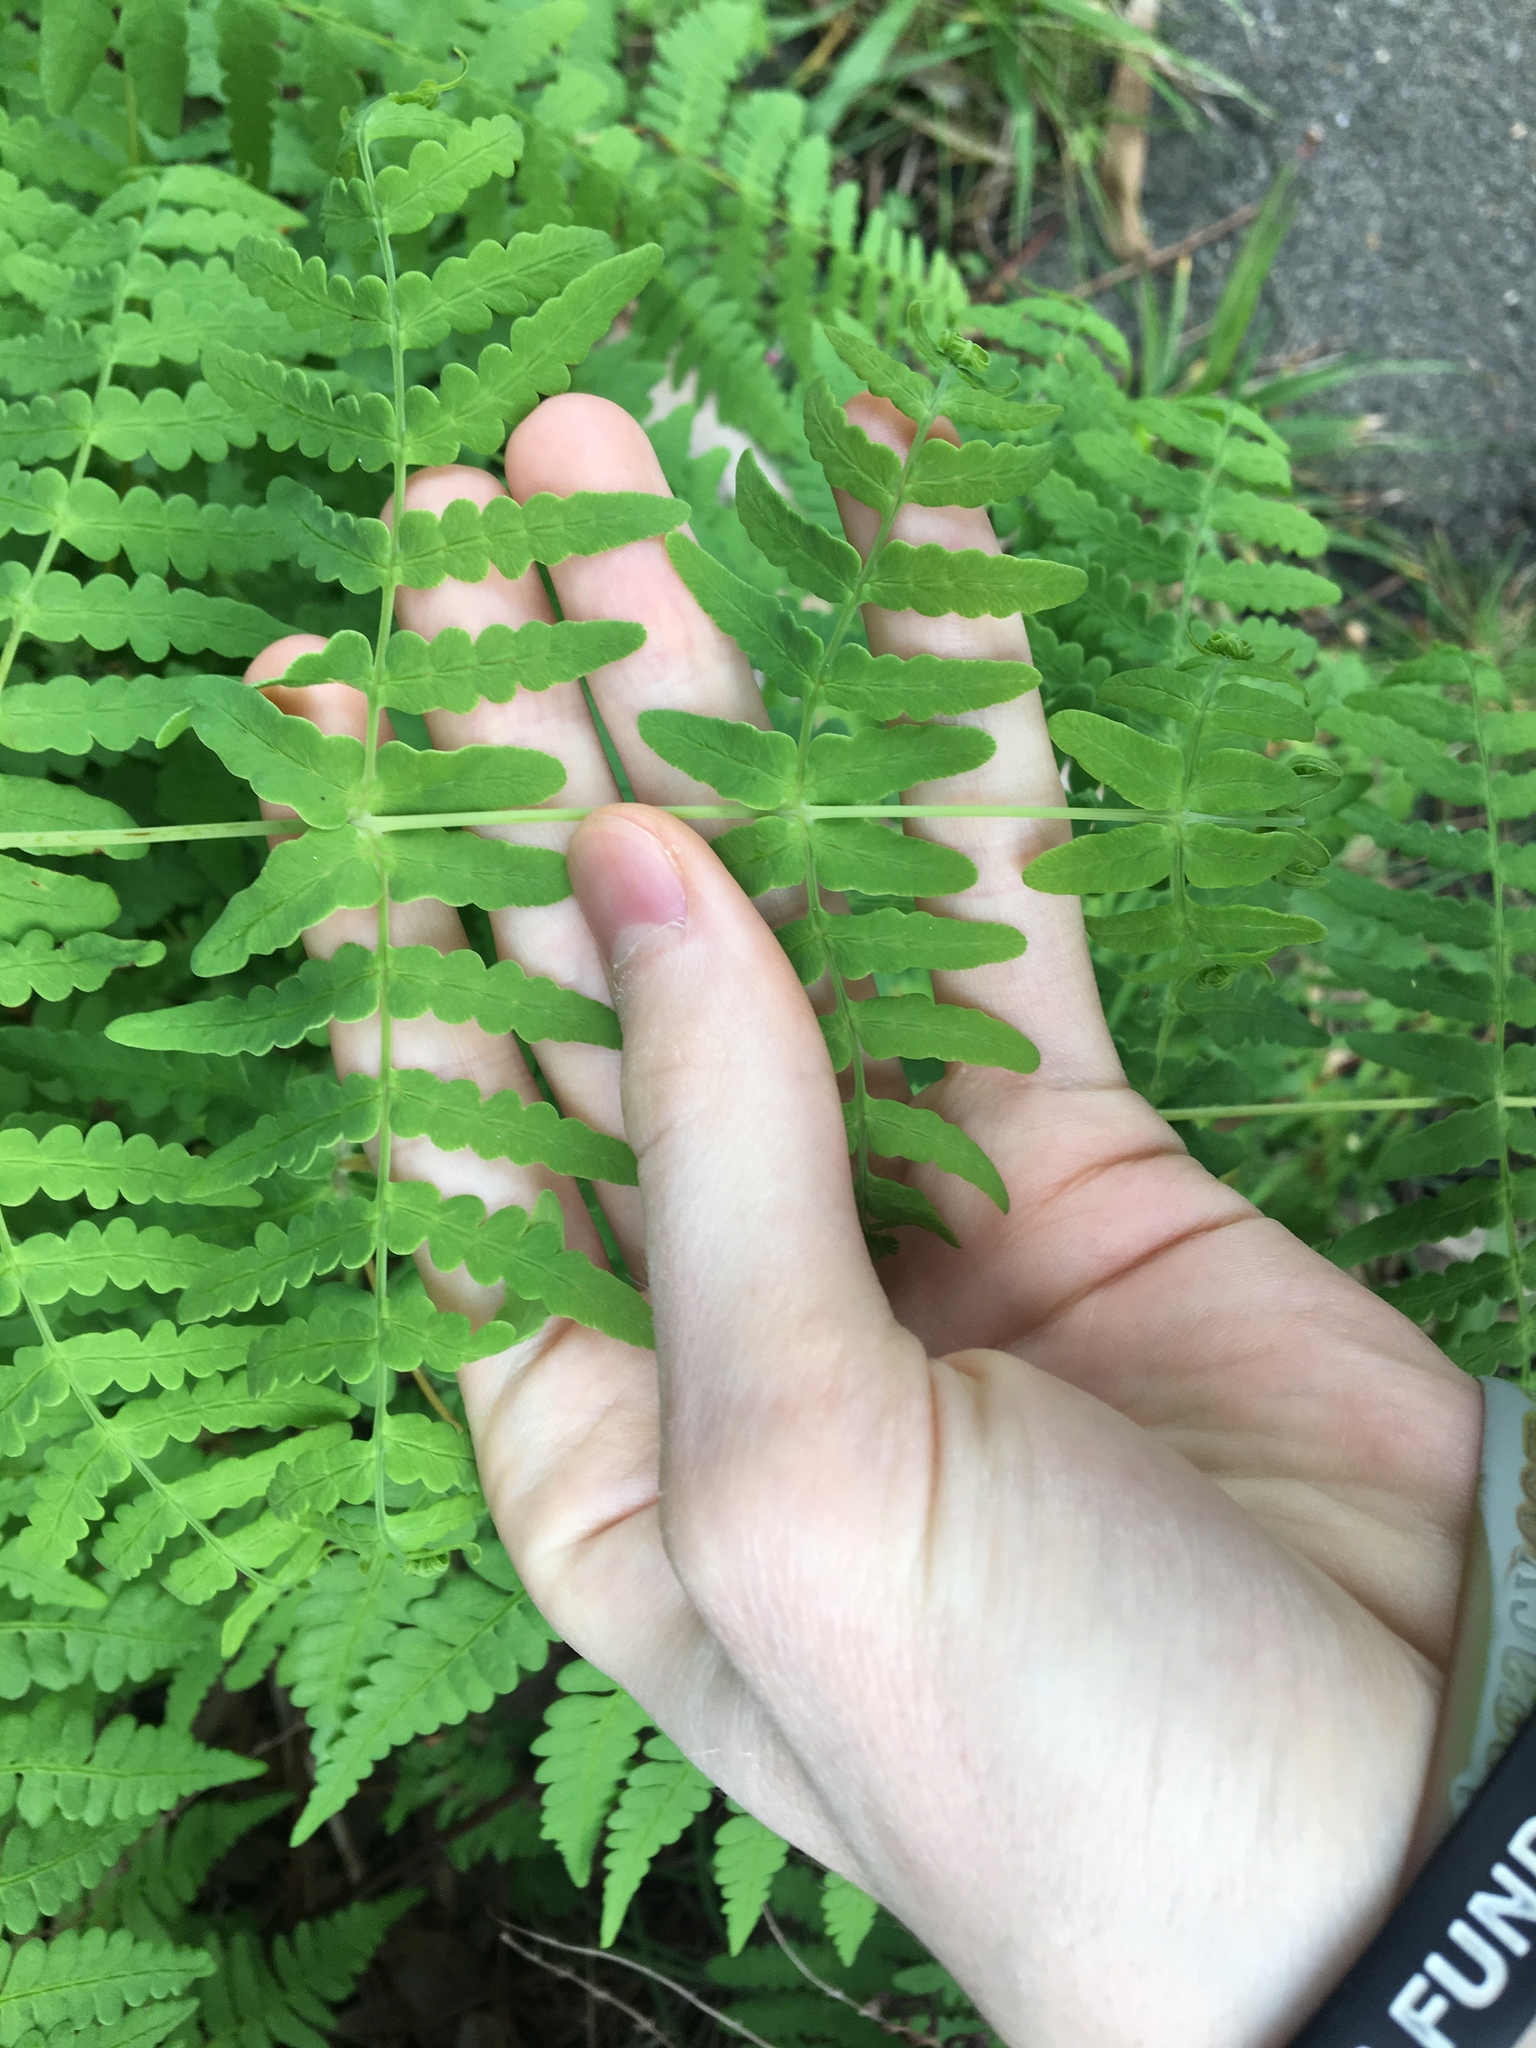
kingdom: Plantae
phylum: Tracheophyta
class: Polypodiopsida
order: Polypodiales
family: Dennstaedtiaceae
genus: Histiopteris
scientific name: Histiopteris incisa
